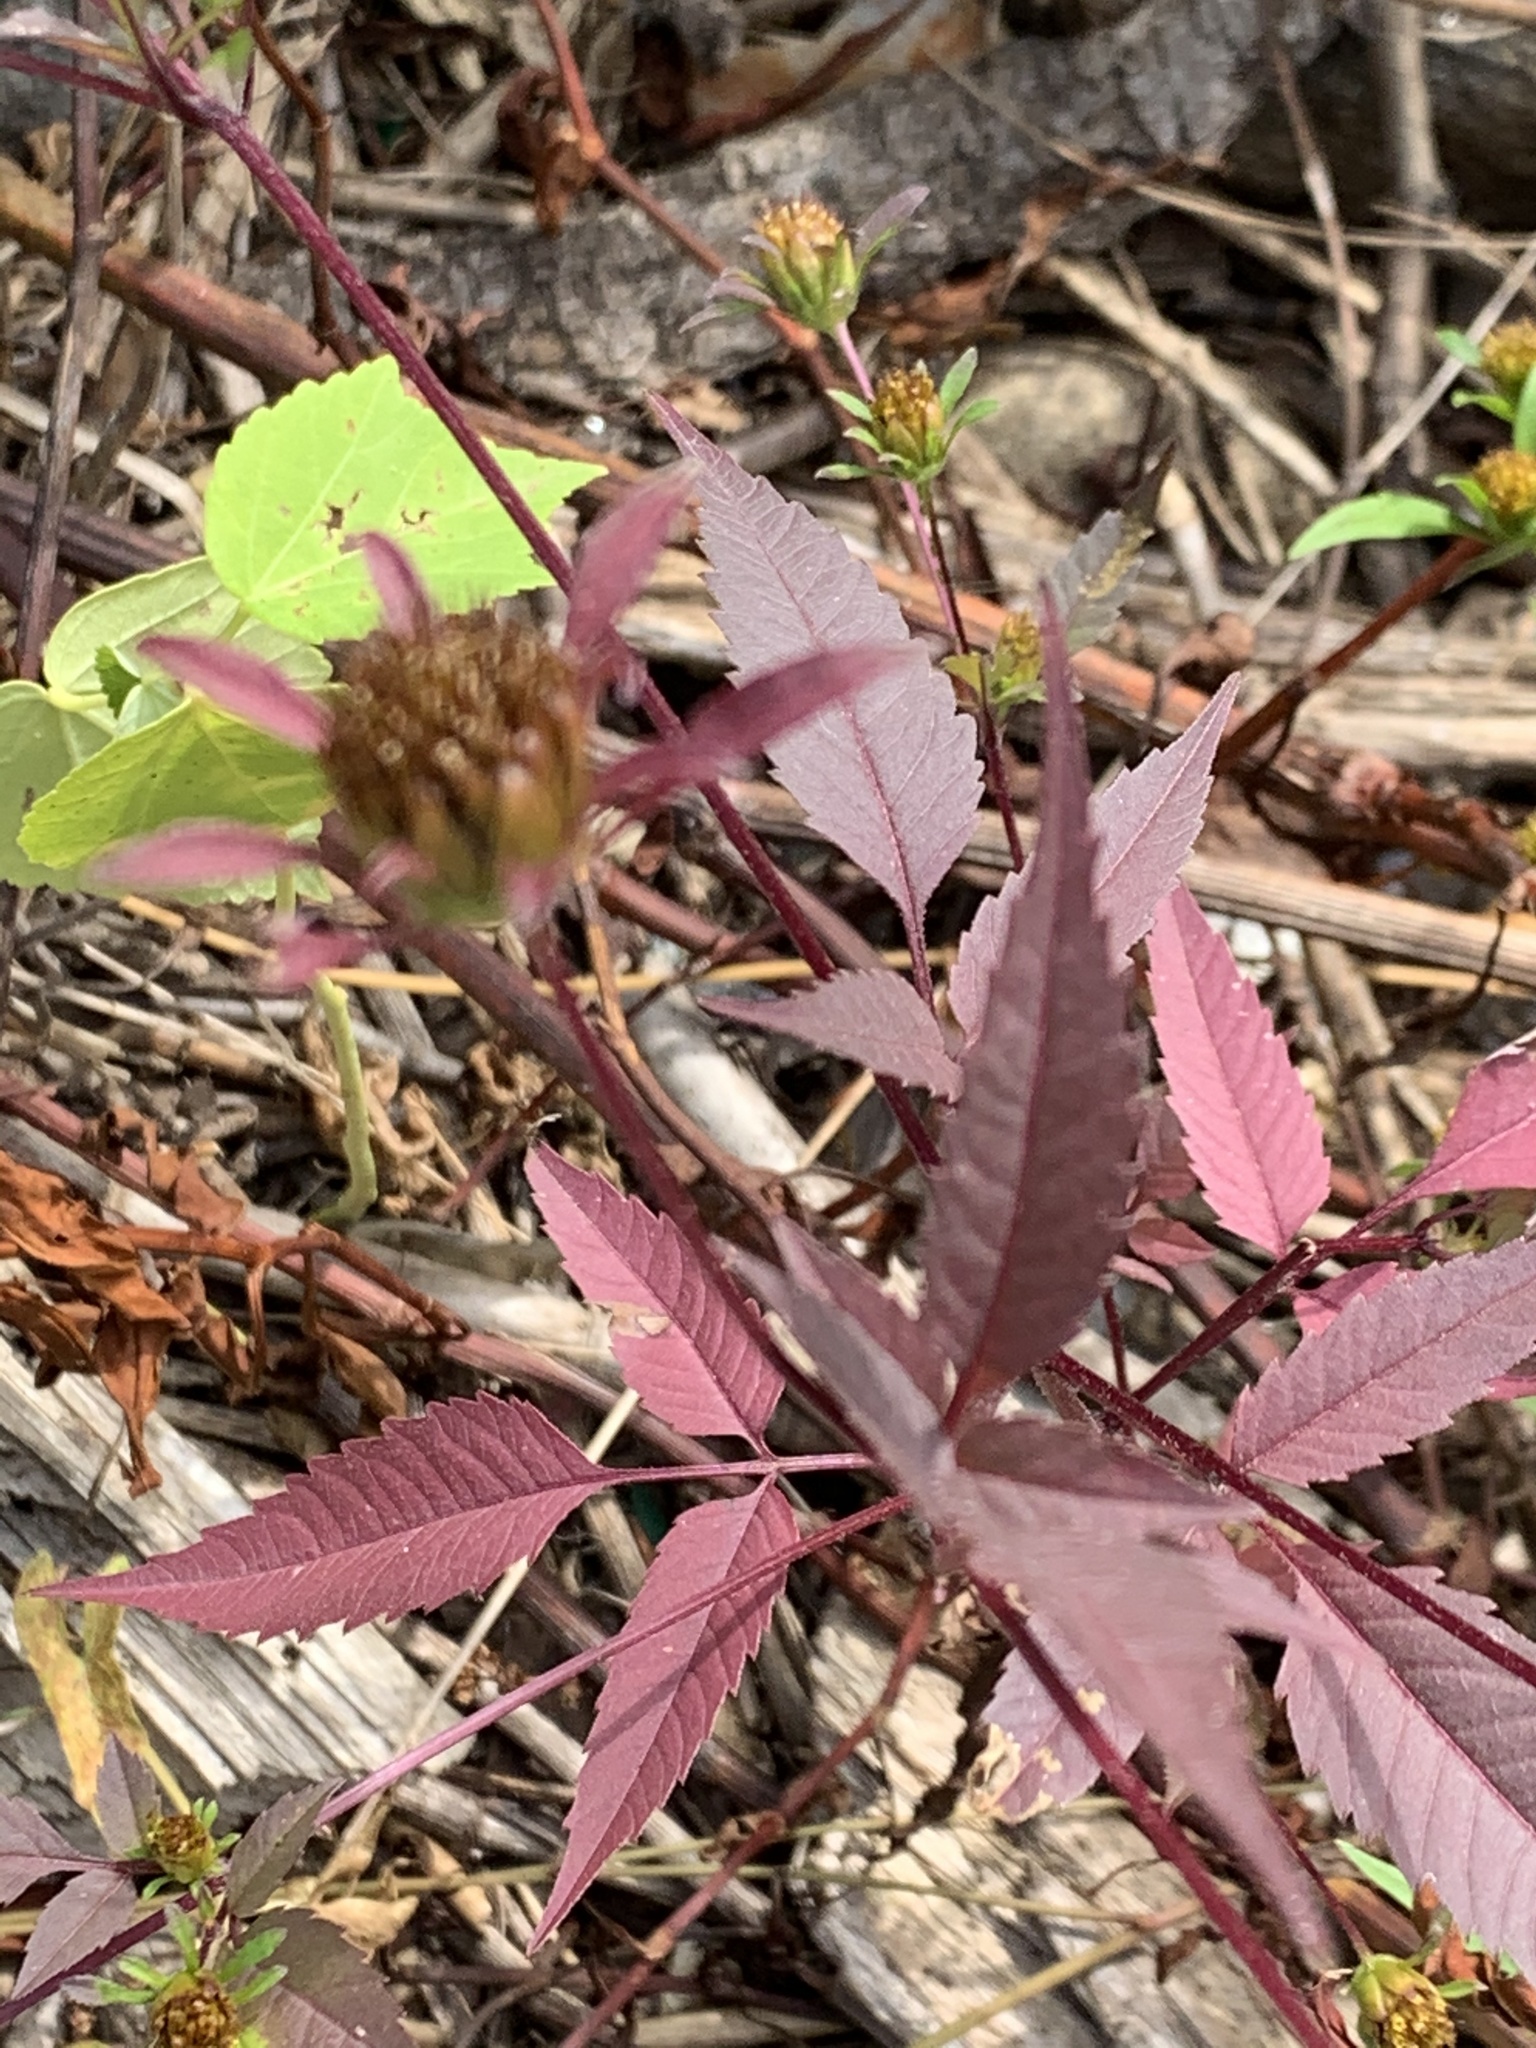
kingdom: Plantae
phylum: Tracheophyta
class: Magnoliopsida
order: Asterales
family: Asteraceae
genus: Bidens
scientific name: Bidens frondosa
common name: Beggarticks
